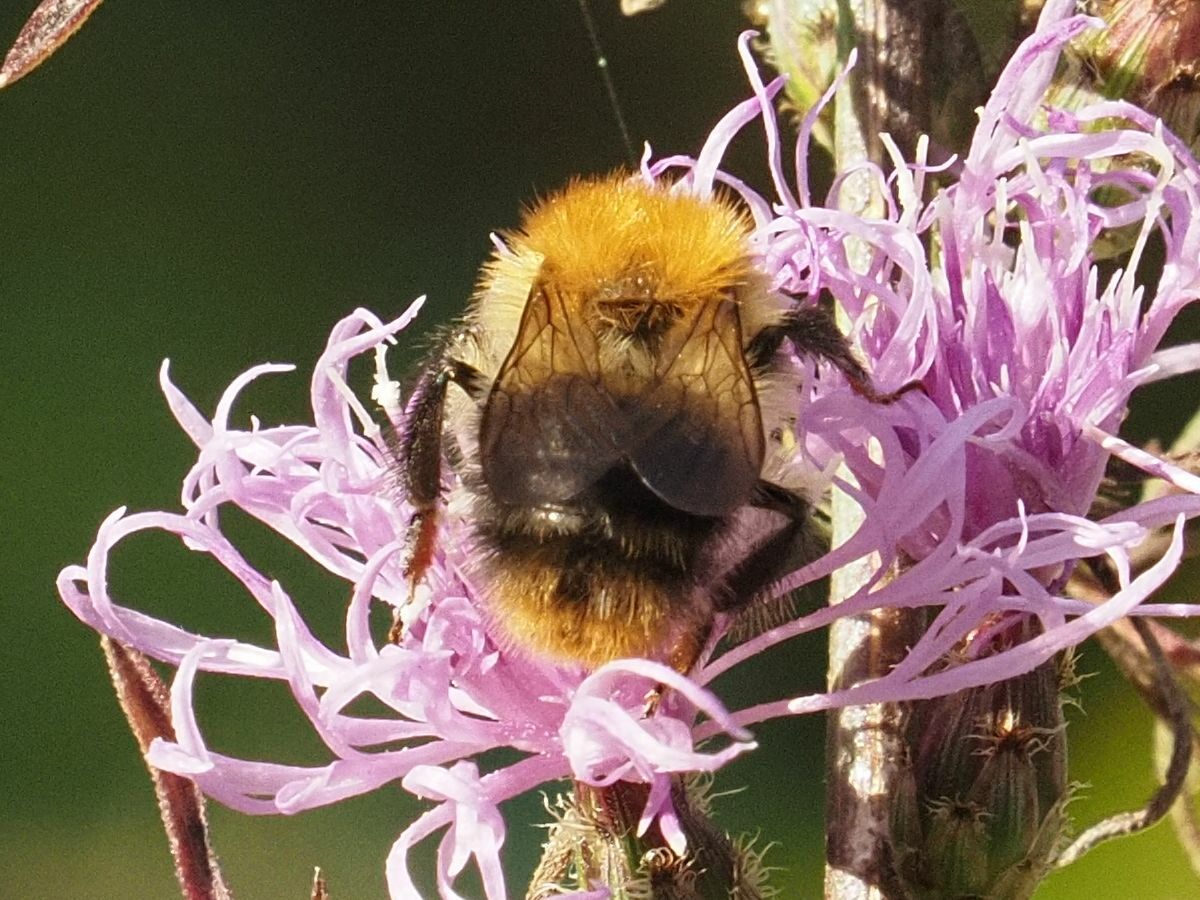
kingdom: Animalia
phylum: Arthropoda
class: Insecta
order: Hymenoptera
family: Apidae
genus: Bombus
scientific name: Bombus pascuorum
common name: Common carder bee
